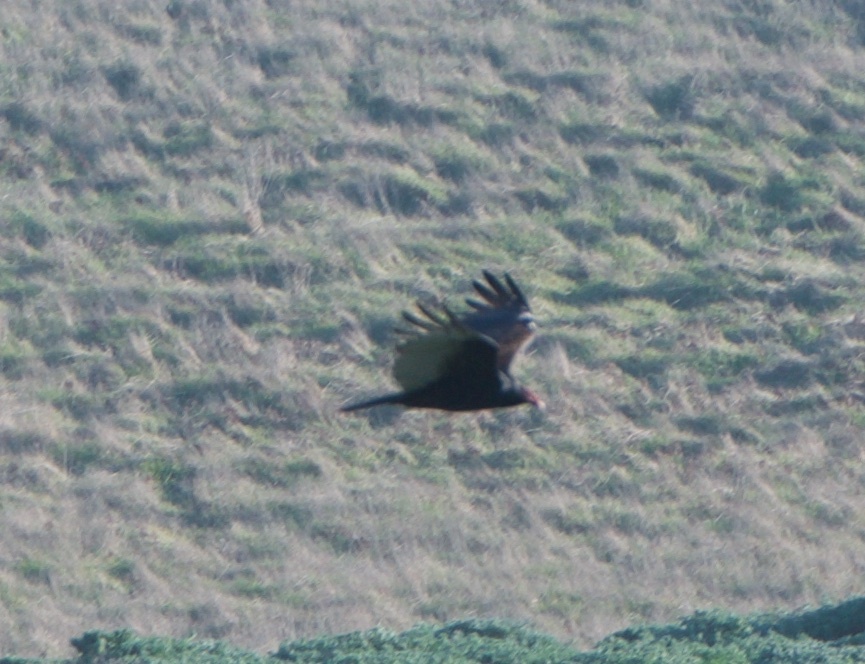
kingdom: Animalia
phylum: Chordata
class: Aves
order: Accipitriformes
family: Cathartidae
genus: Cathartes
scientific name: Cathartes aura
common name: Turkey vulture
